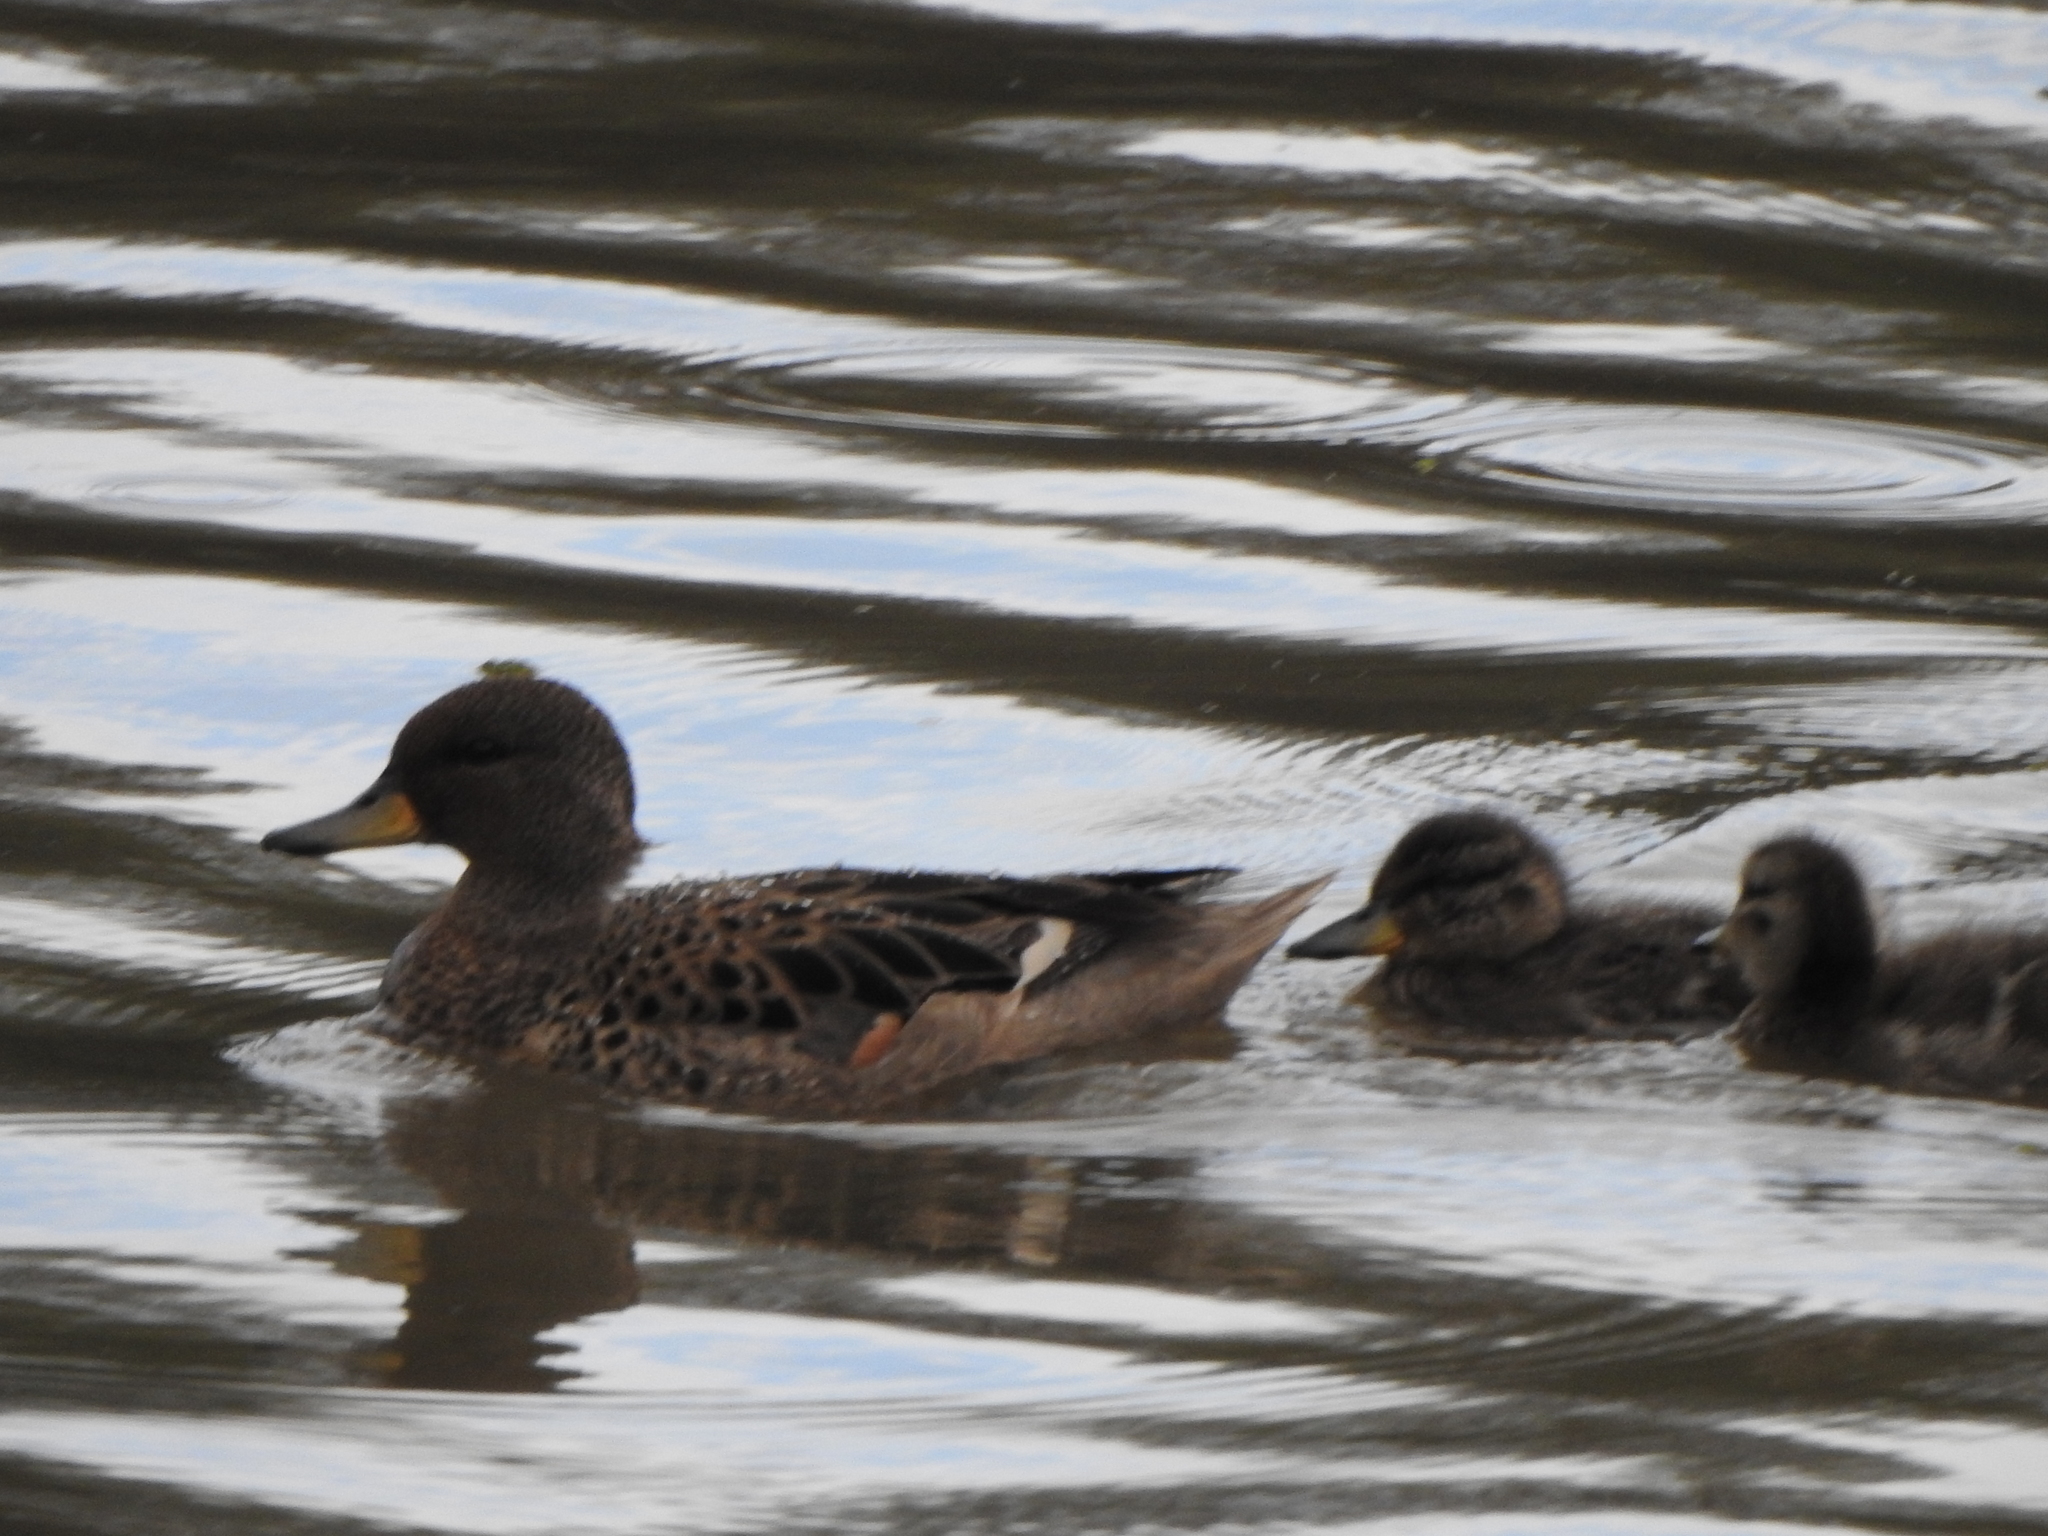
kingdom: Animalia
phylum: Chordata
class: Aves
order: Anseriformes
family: Anatidae
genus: Anas
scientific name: Anas flavirostris
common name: Yellow-billed teal
